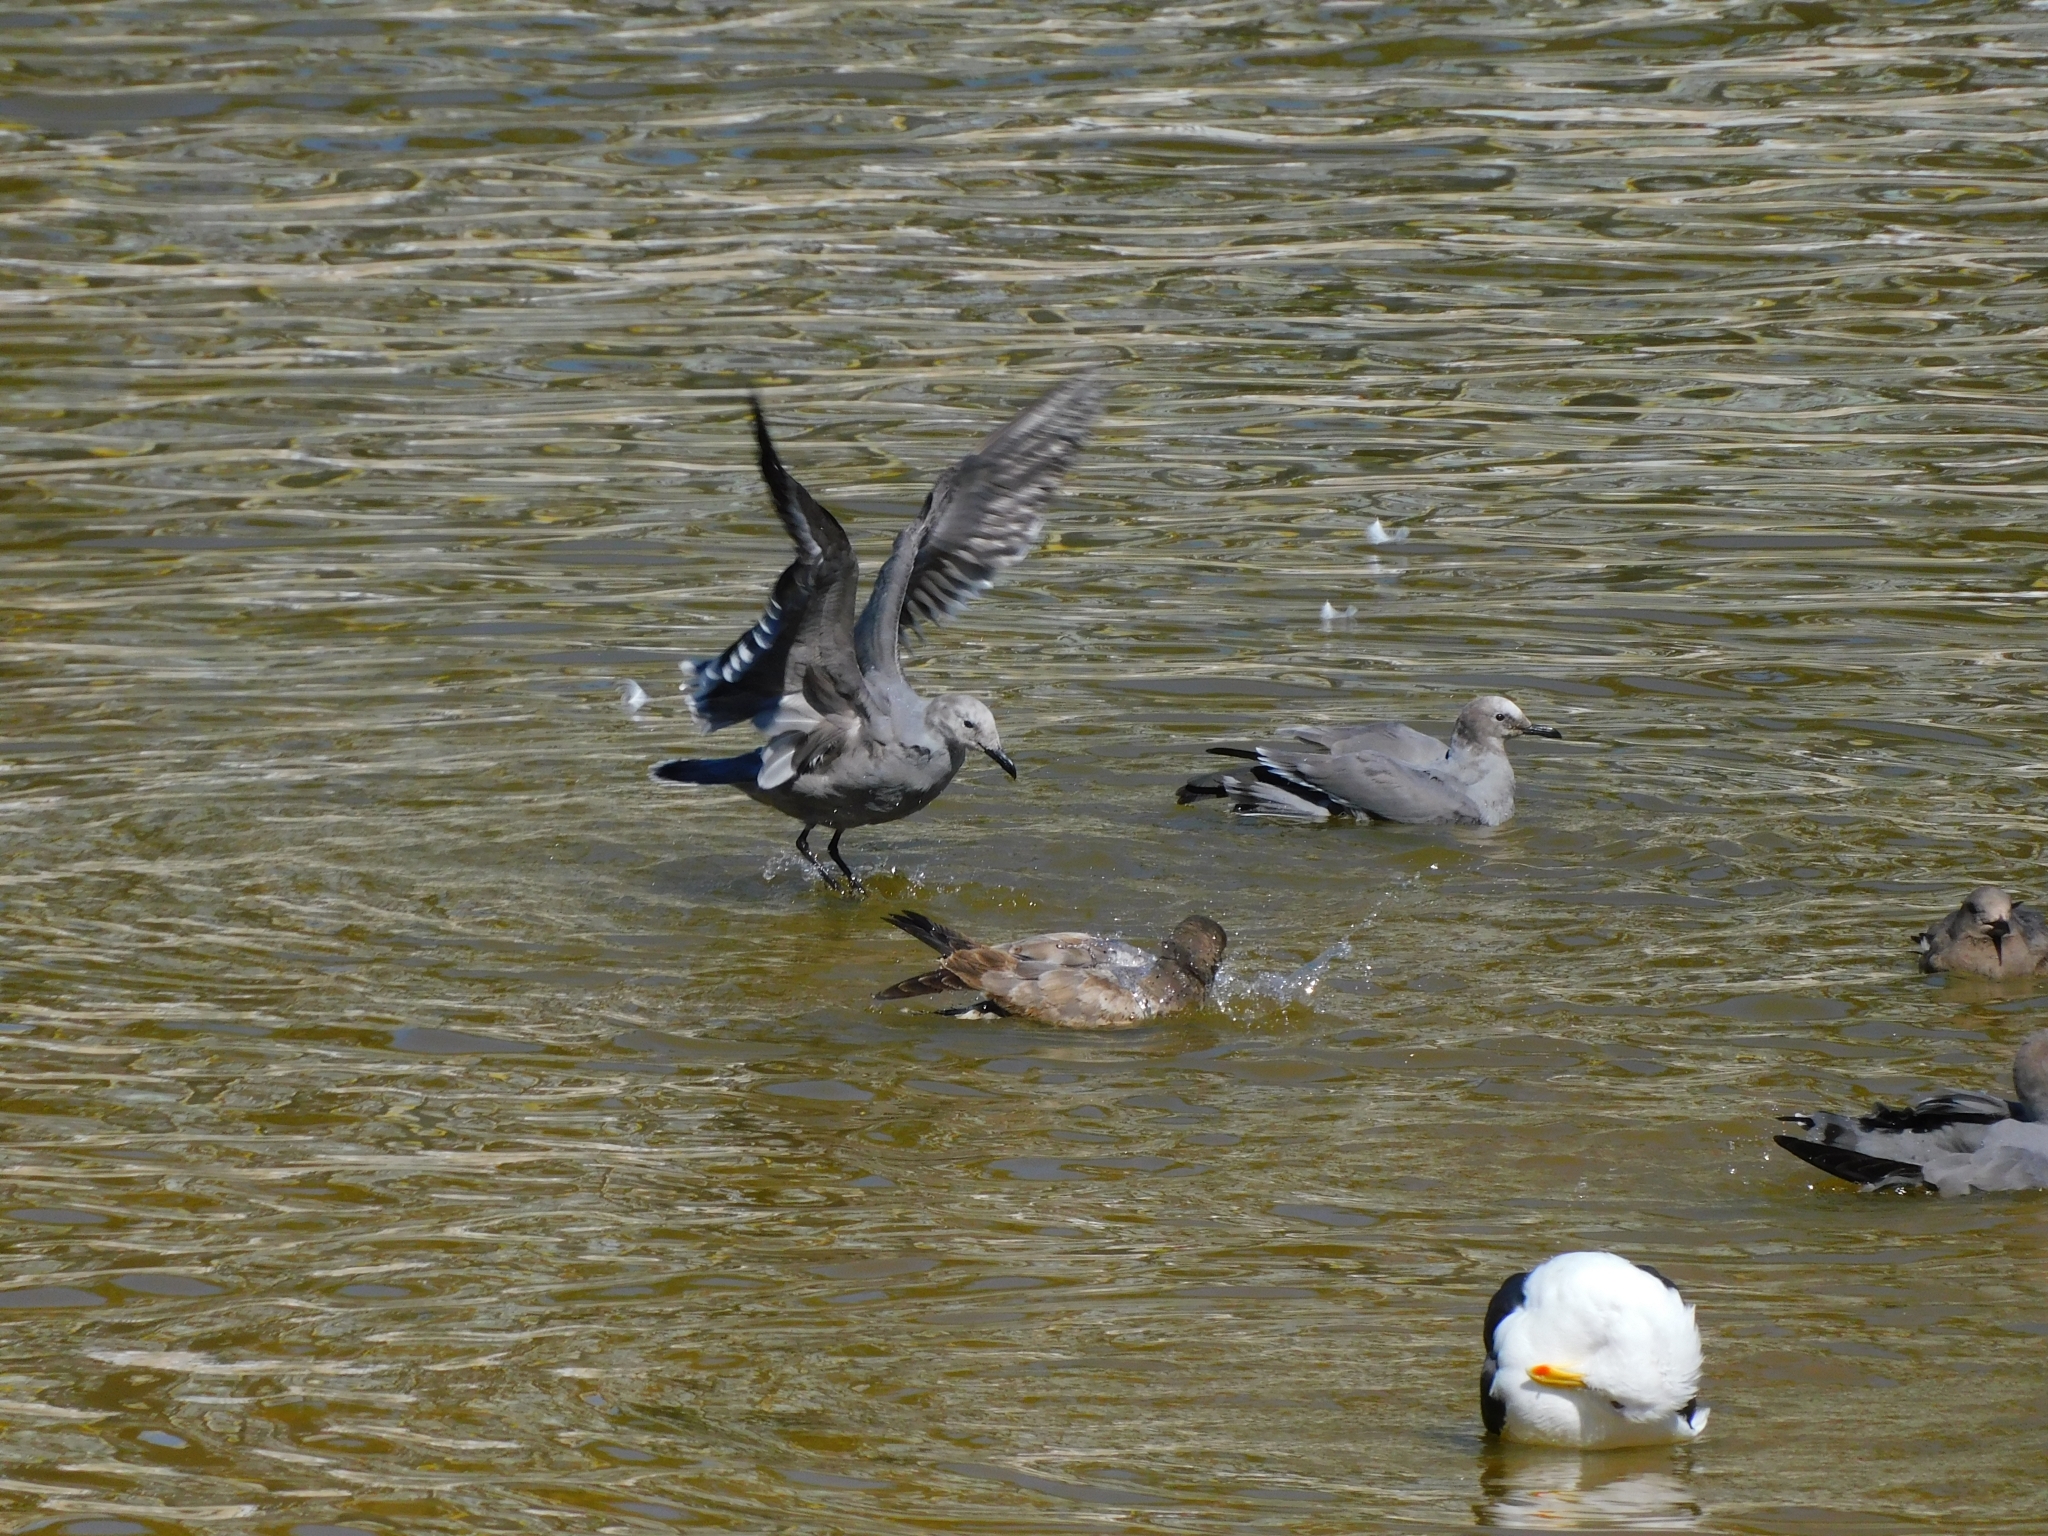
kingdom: Animalia
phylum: Chordata
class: Aves
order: Charadriiformes
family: Laridae
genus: Leucophaeus
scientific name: Leucophaeus modestus
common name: Gray gull
